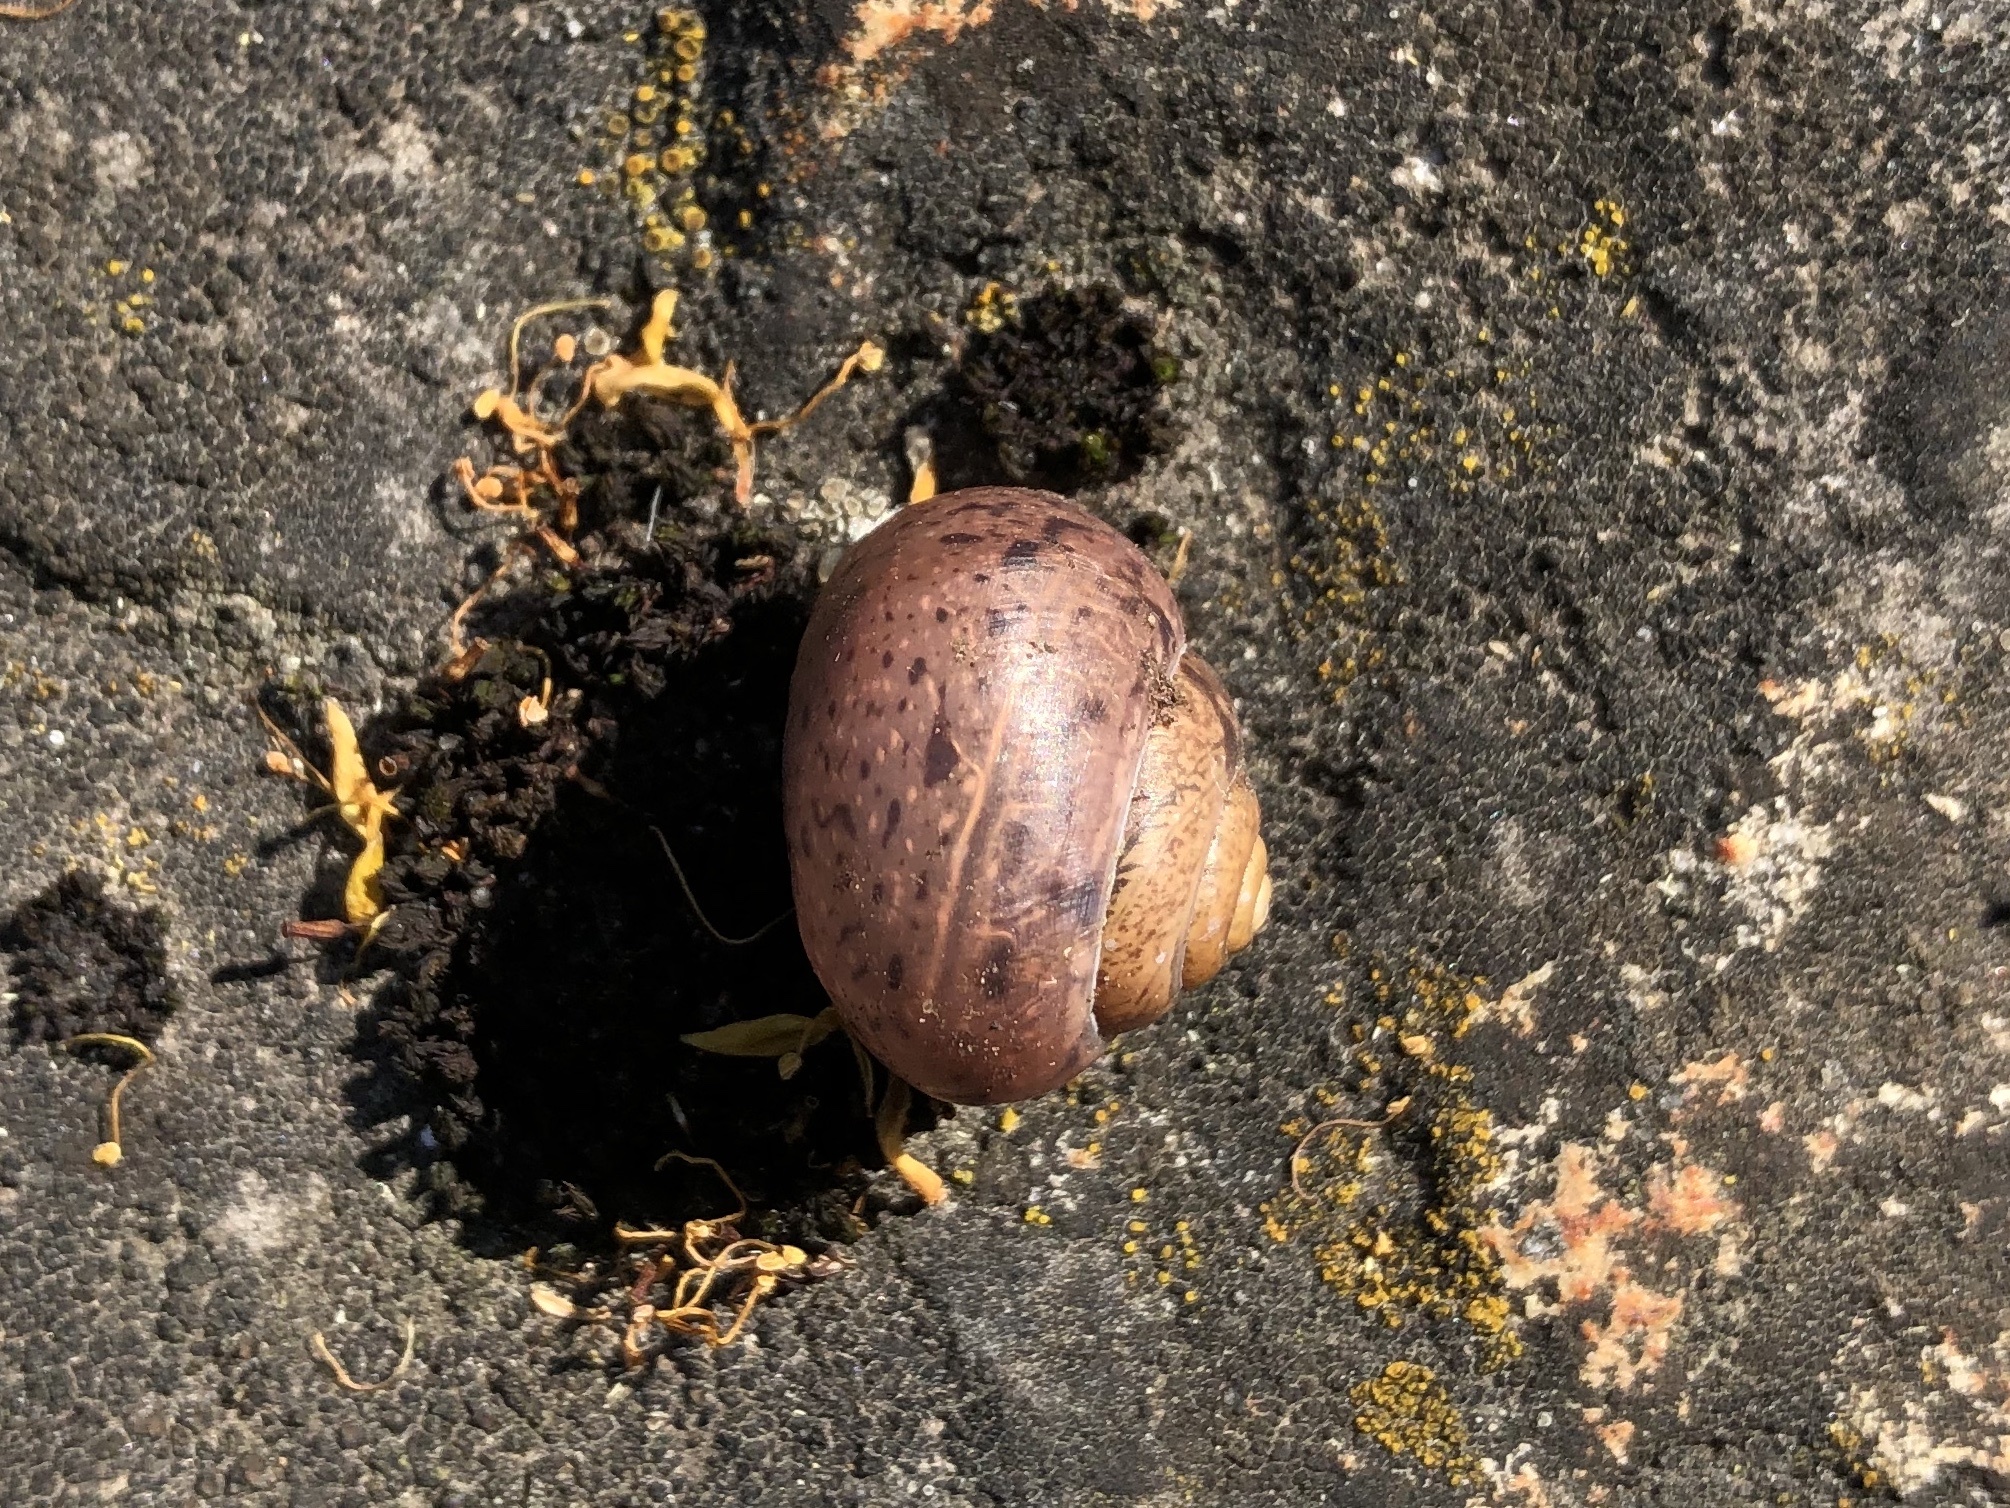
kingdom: Animalia
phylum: Mollusca
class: Gastropoda
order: Stylommatophora
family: Camaenidae
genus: Fruticicola
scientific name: Fruticicola fruticum
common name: Bush snail
